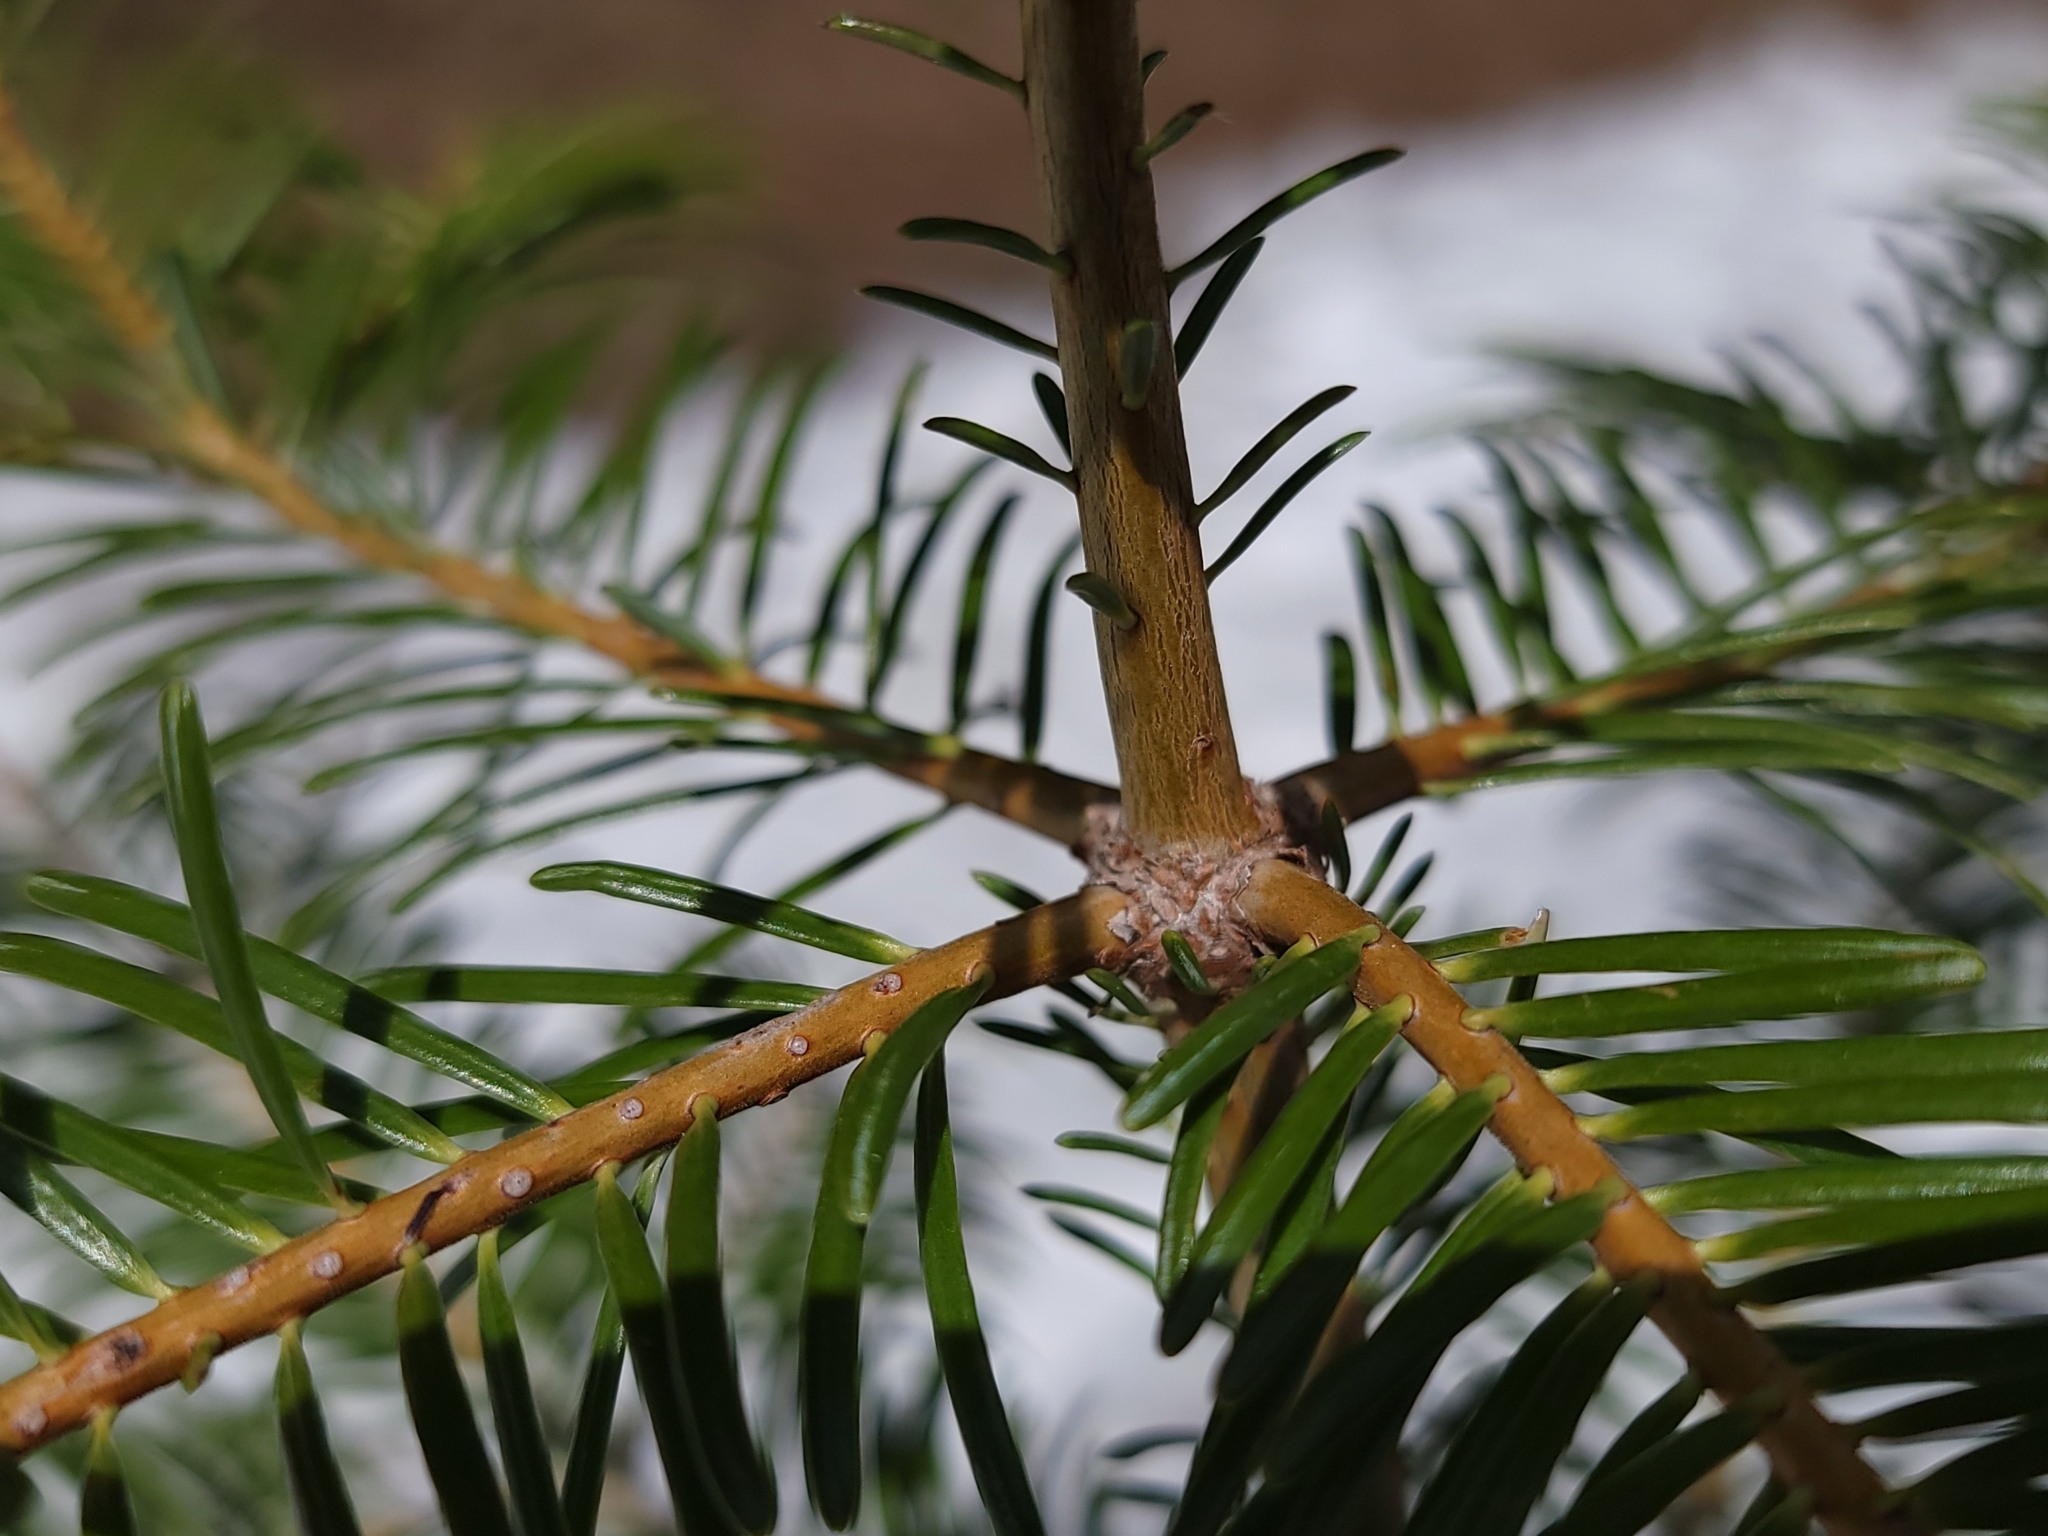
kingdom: Plantae
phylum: Tracheophyta
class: Pinopsida
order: Pinales
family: Pinaceae
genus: Abies
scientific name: Abies grandis
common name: Giant fir
